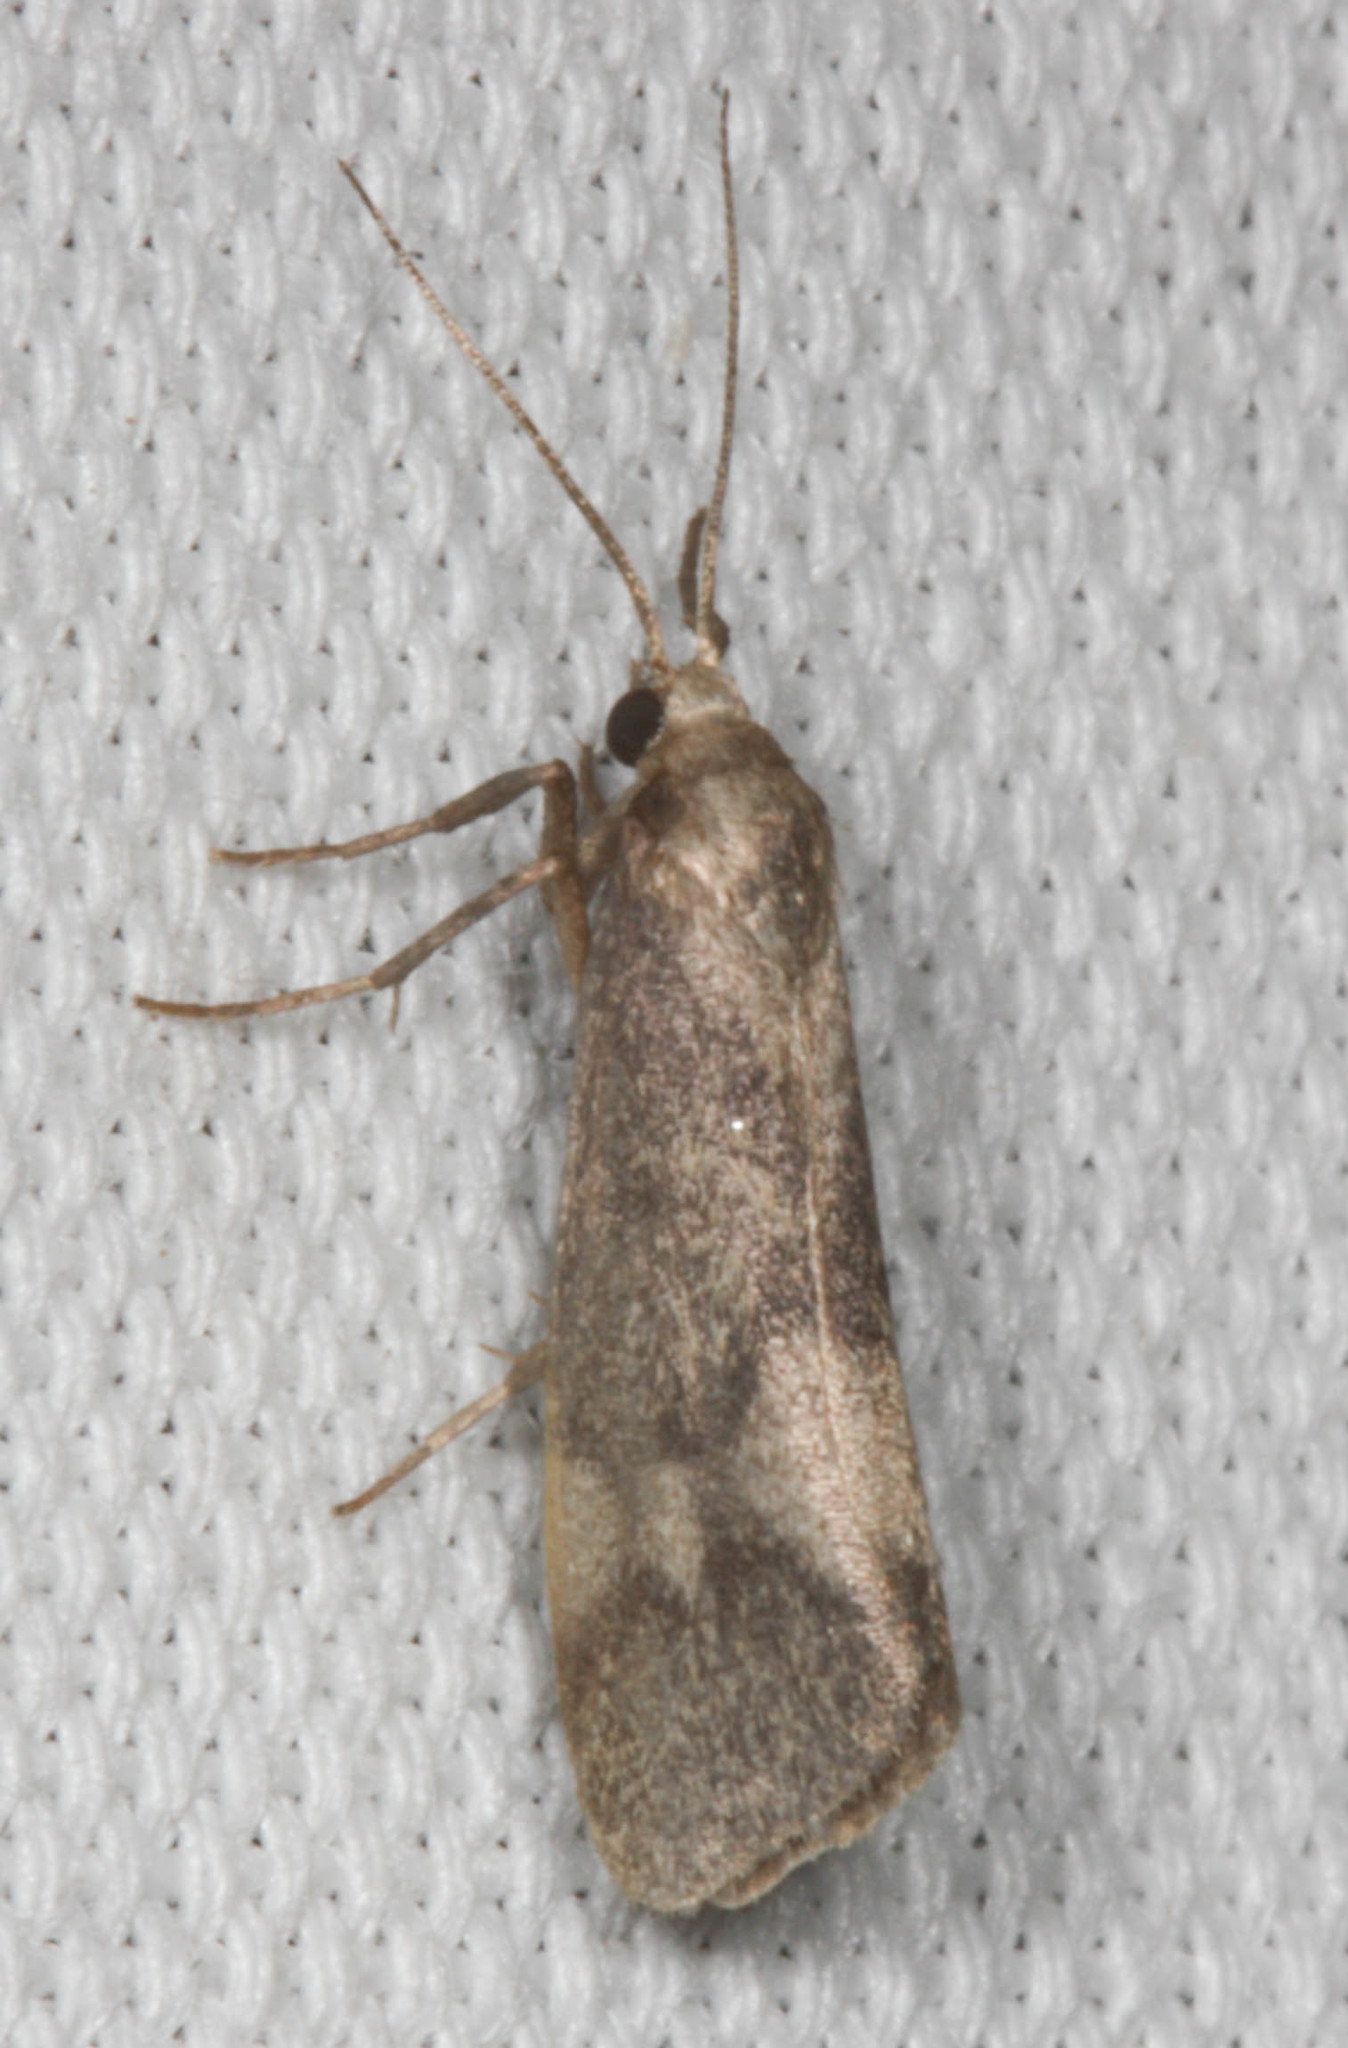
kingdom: Animalia
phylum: Arthropoda
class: Insecta
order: Lepidoptera
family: Erebidae
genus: Cisthene
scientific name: Cisthene faustinula
